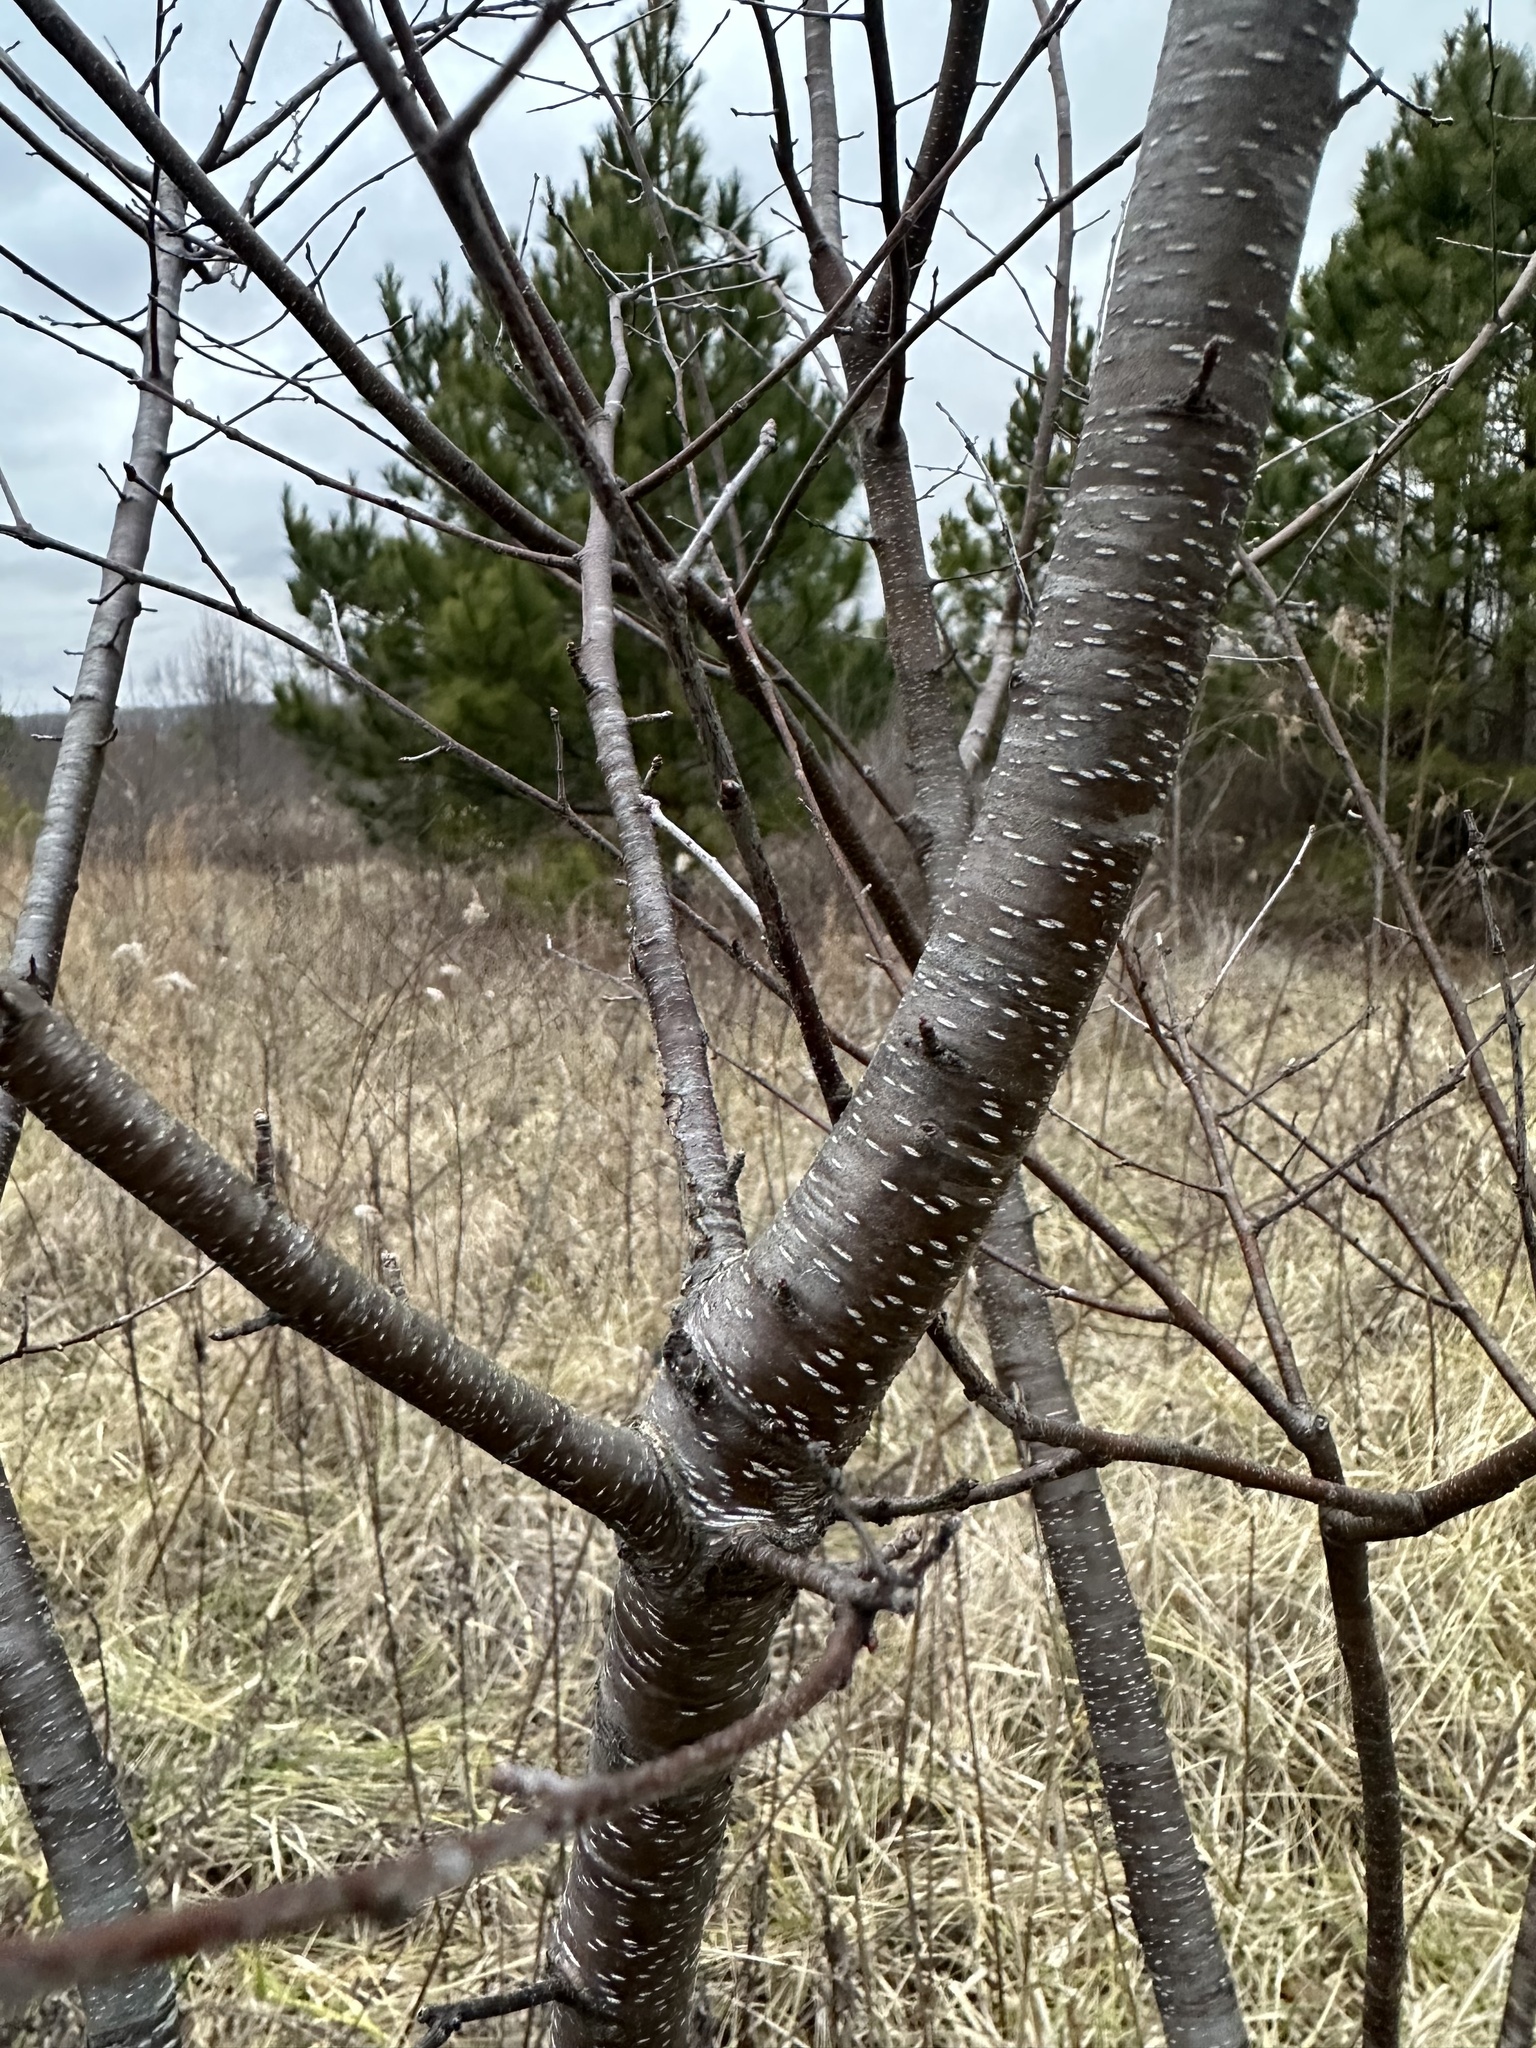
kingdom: Plantae
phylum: Tracheophyta
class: Magnoliopsida
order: Rosales
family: Rosaceae
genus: Prunus
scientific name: Prunus serotina
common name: Black cherry
